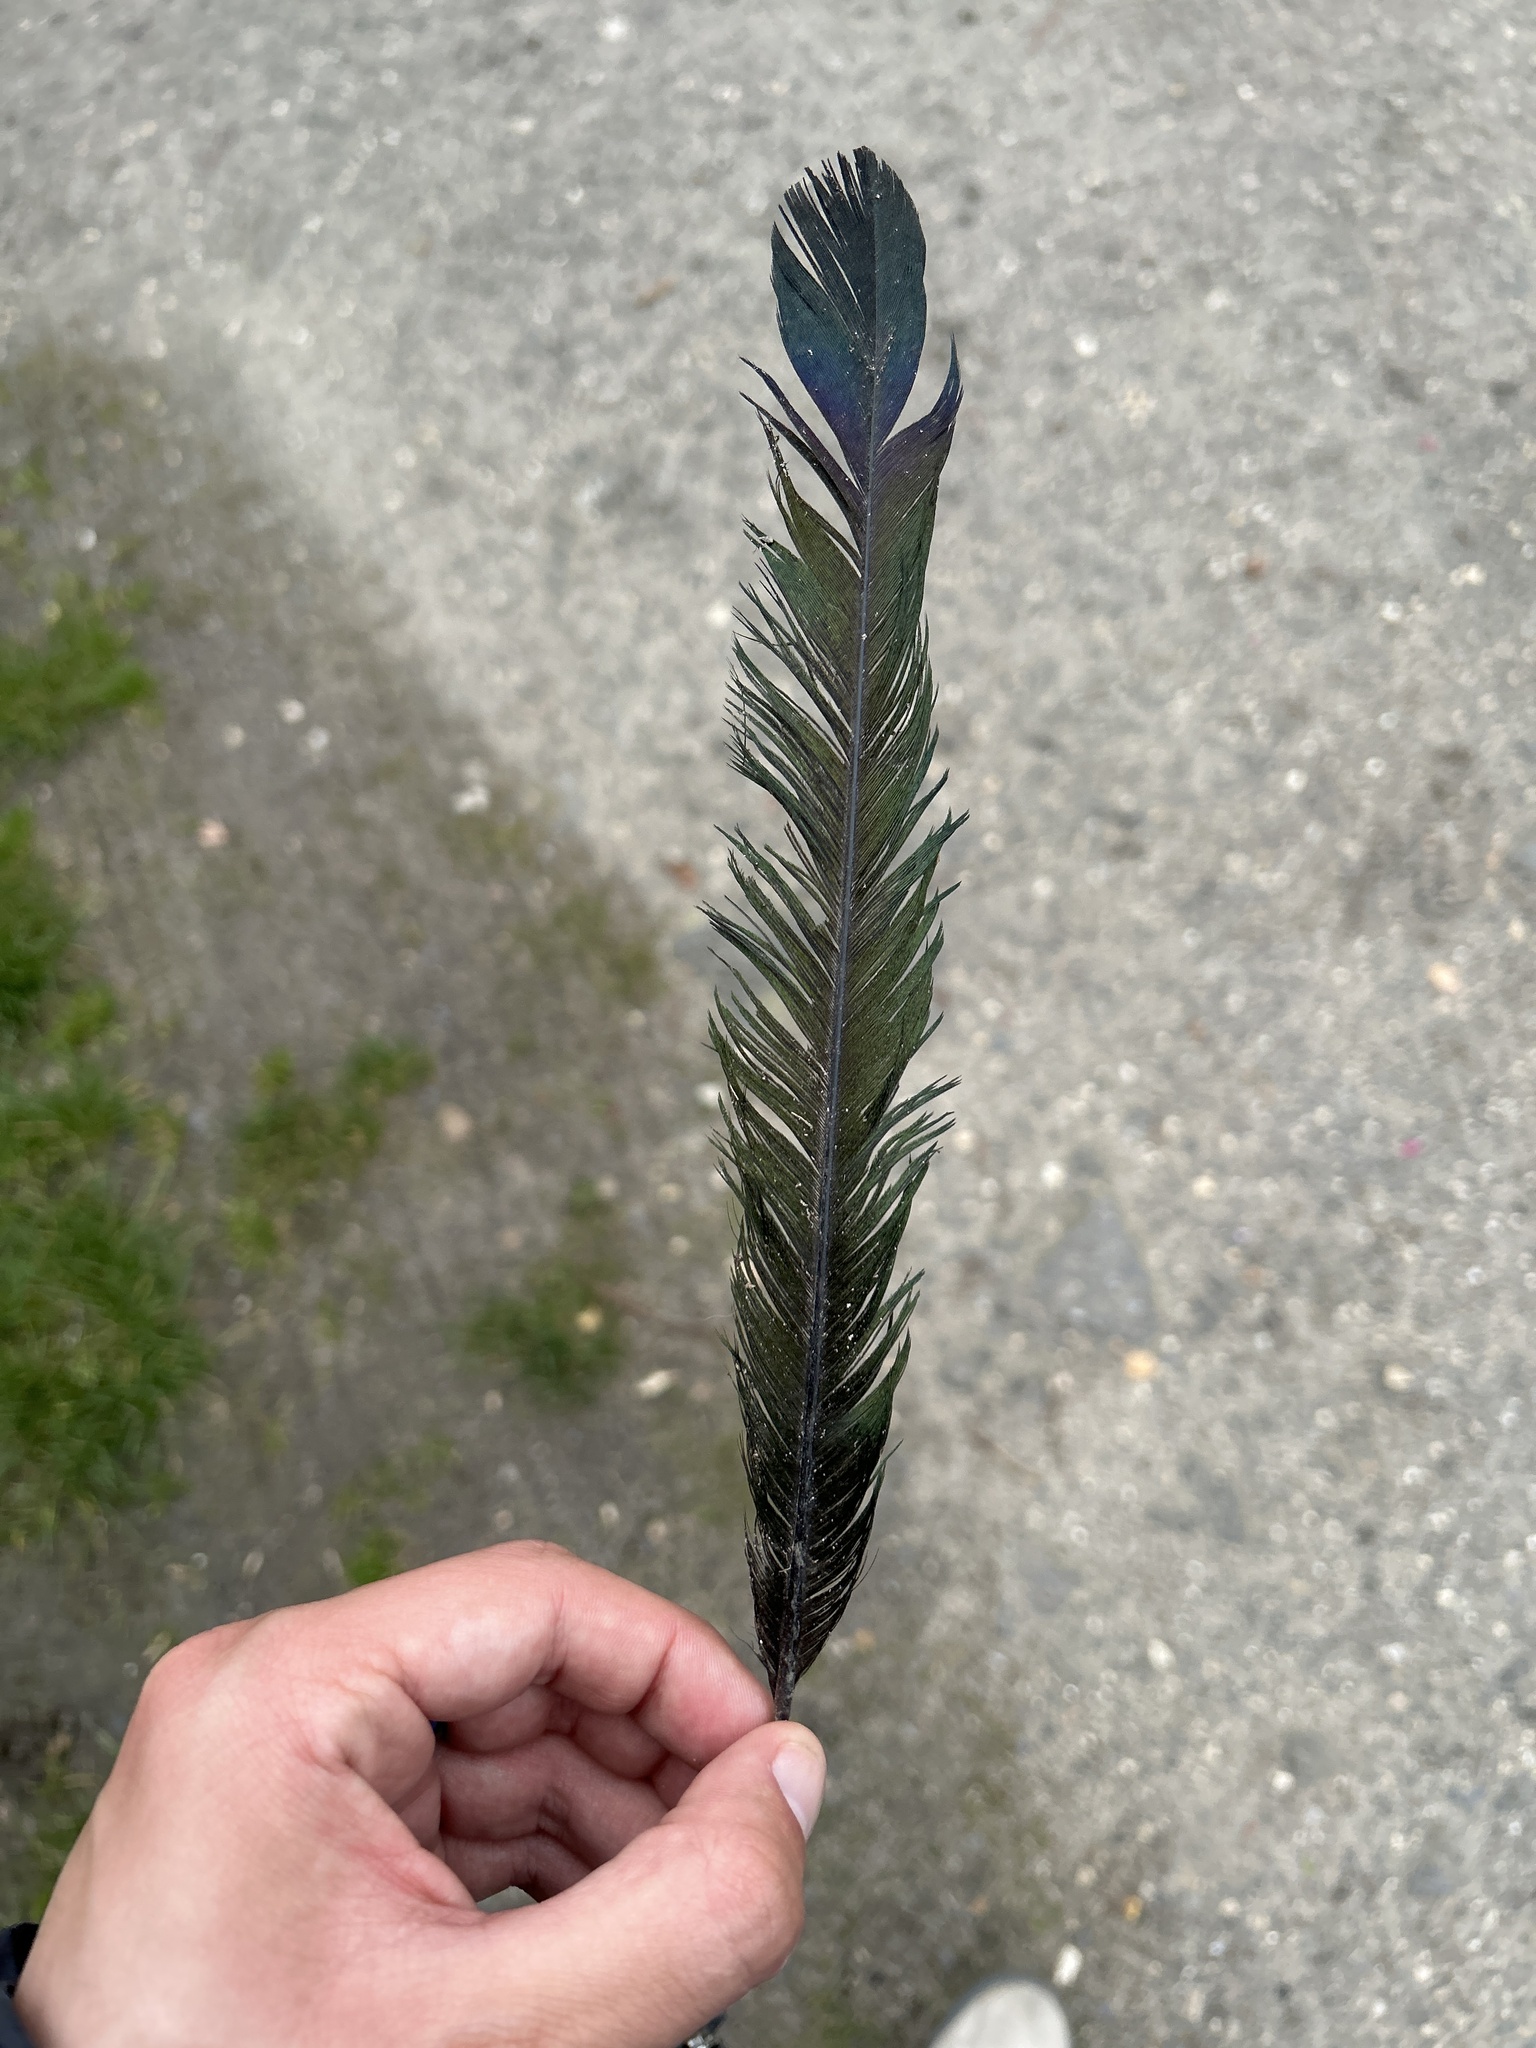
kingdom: Animalia
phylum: Chordata
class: Aves
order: Passeriformes
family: Corvidae
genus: Pica
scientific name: Pica pica
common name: Eurasian magpie
